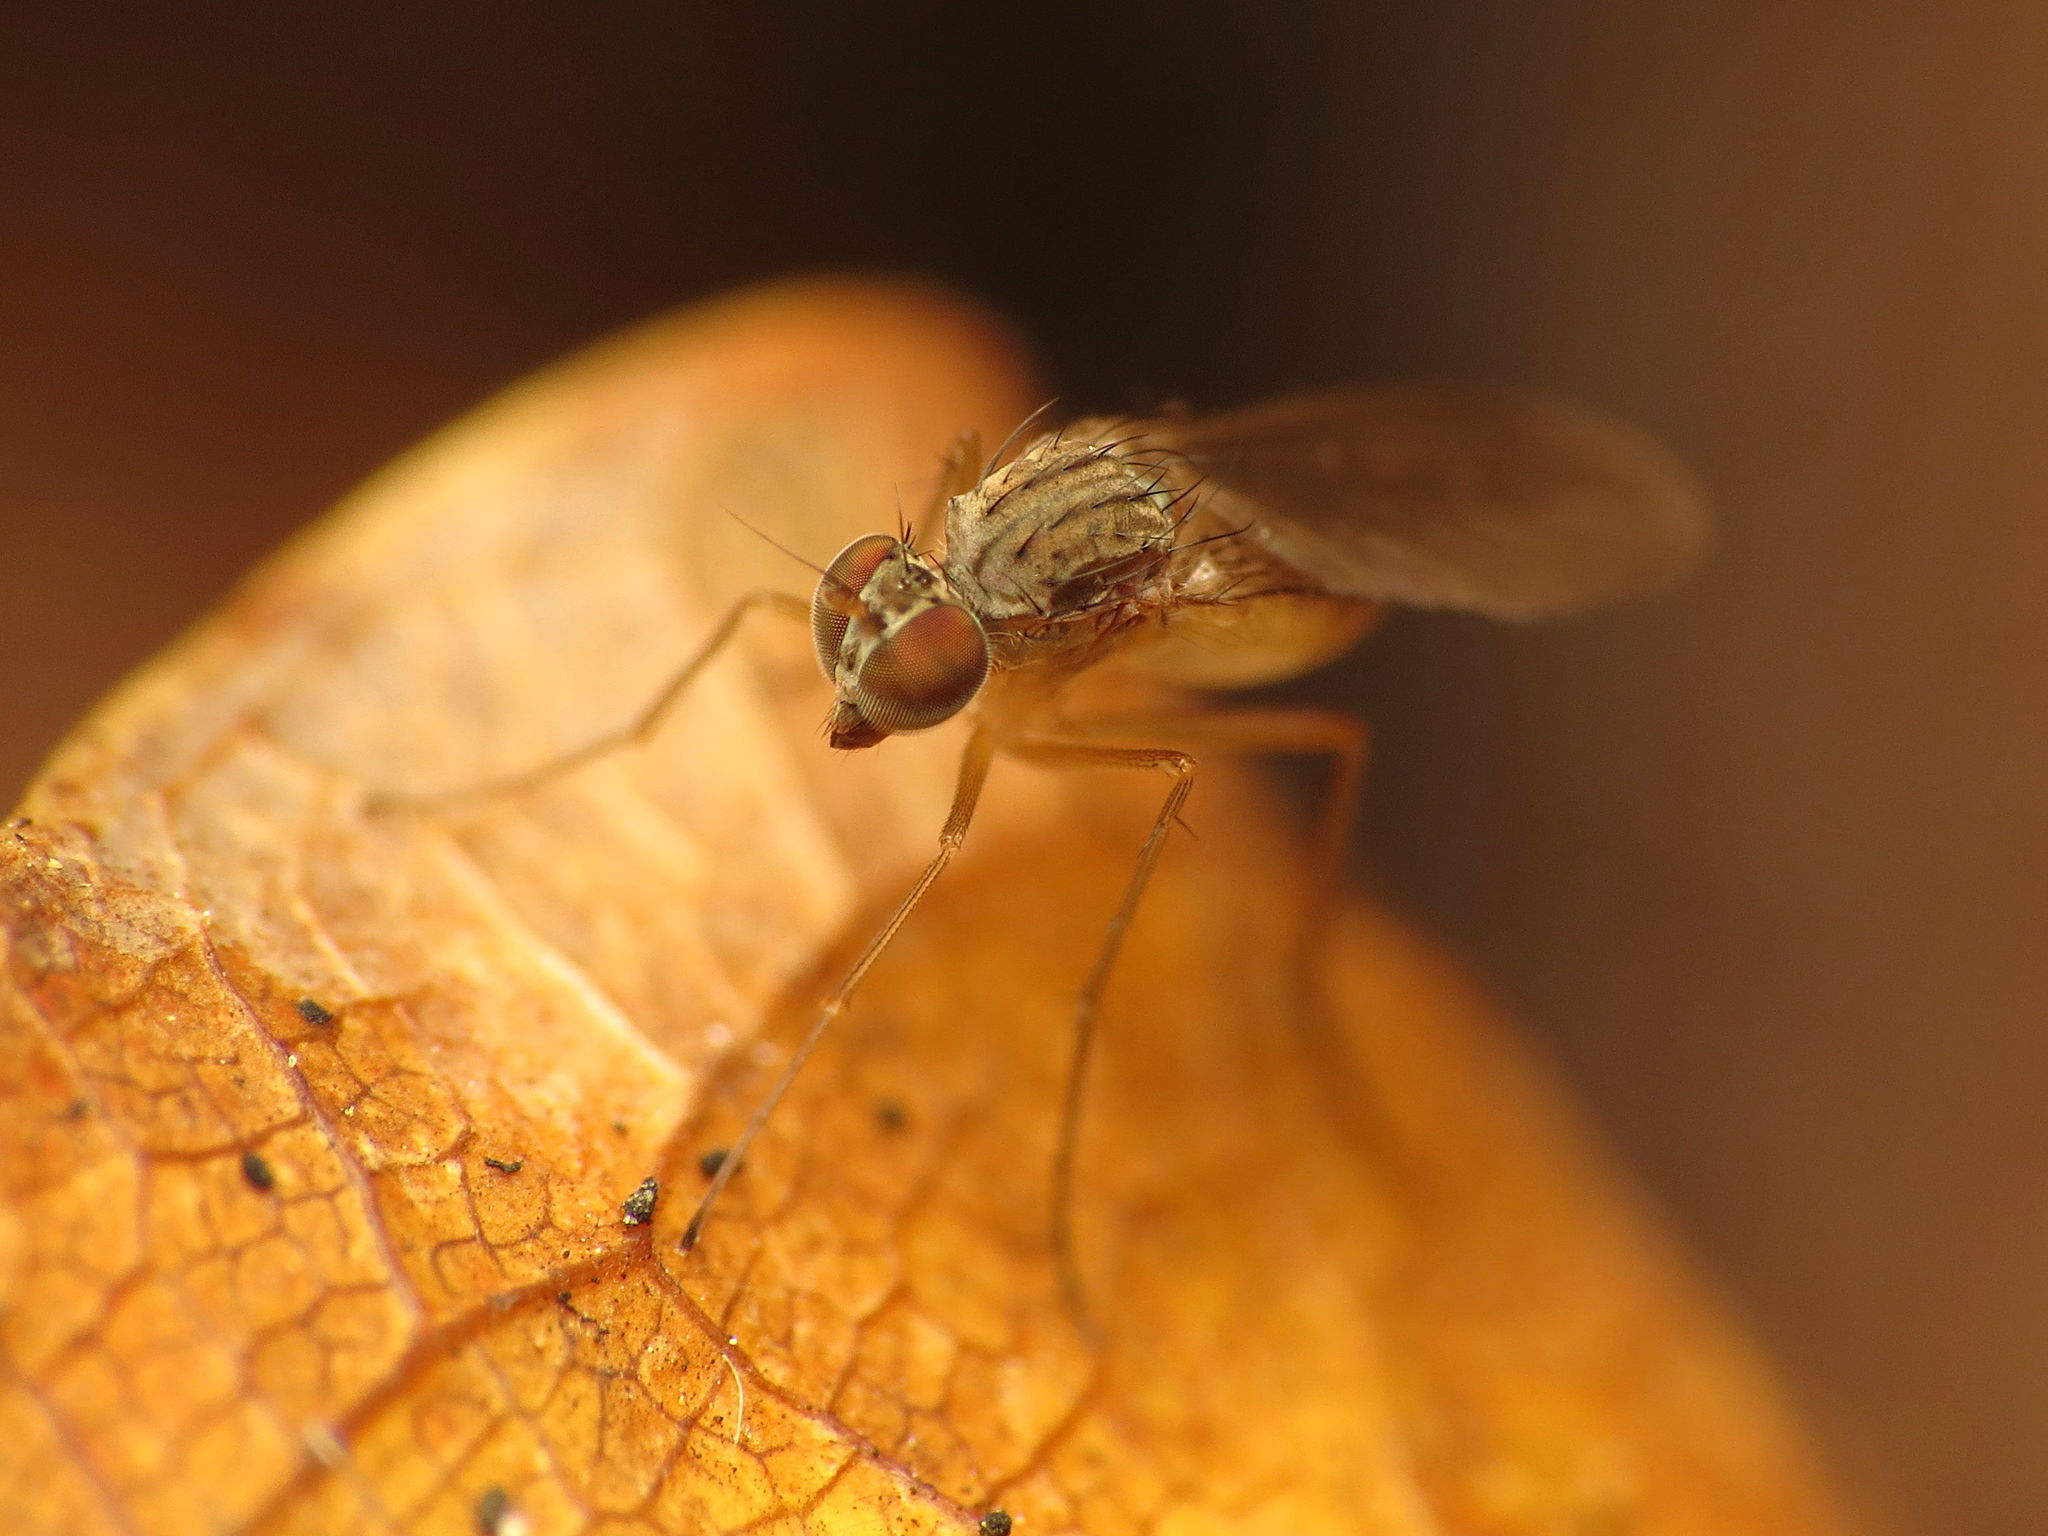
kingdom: Animalia
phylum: Arthropoda
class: Insecta
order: Diptera
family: Dolichopodidae
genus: Sympycnus
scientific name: Sympycnus lineatus
